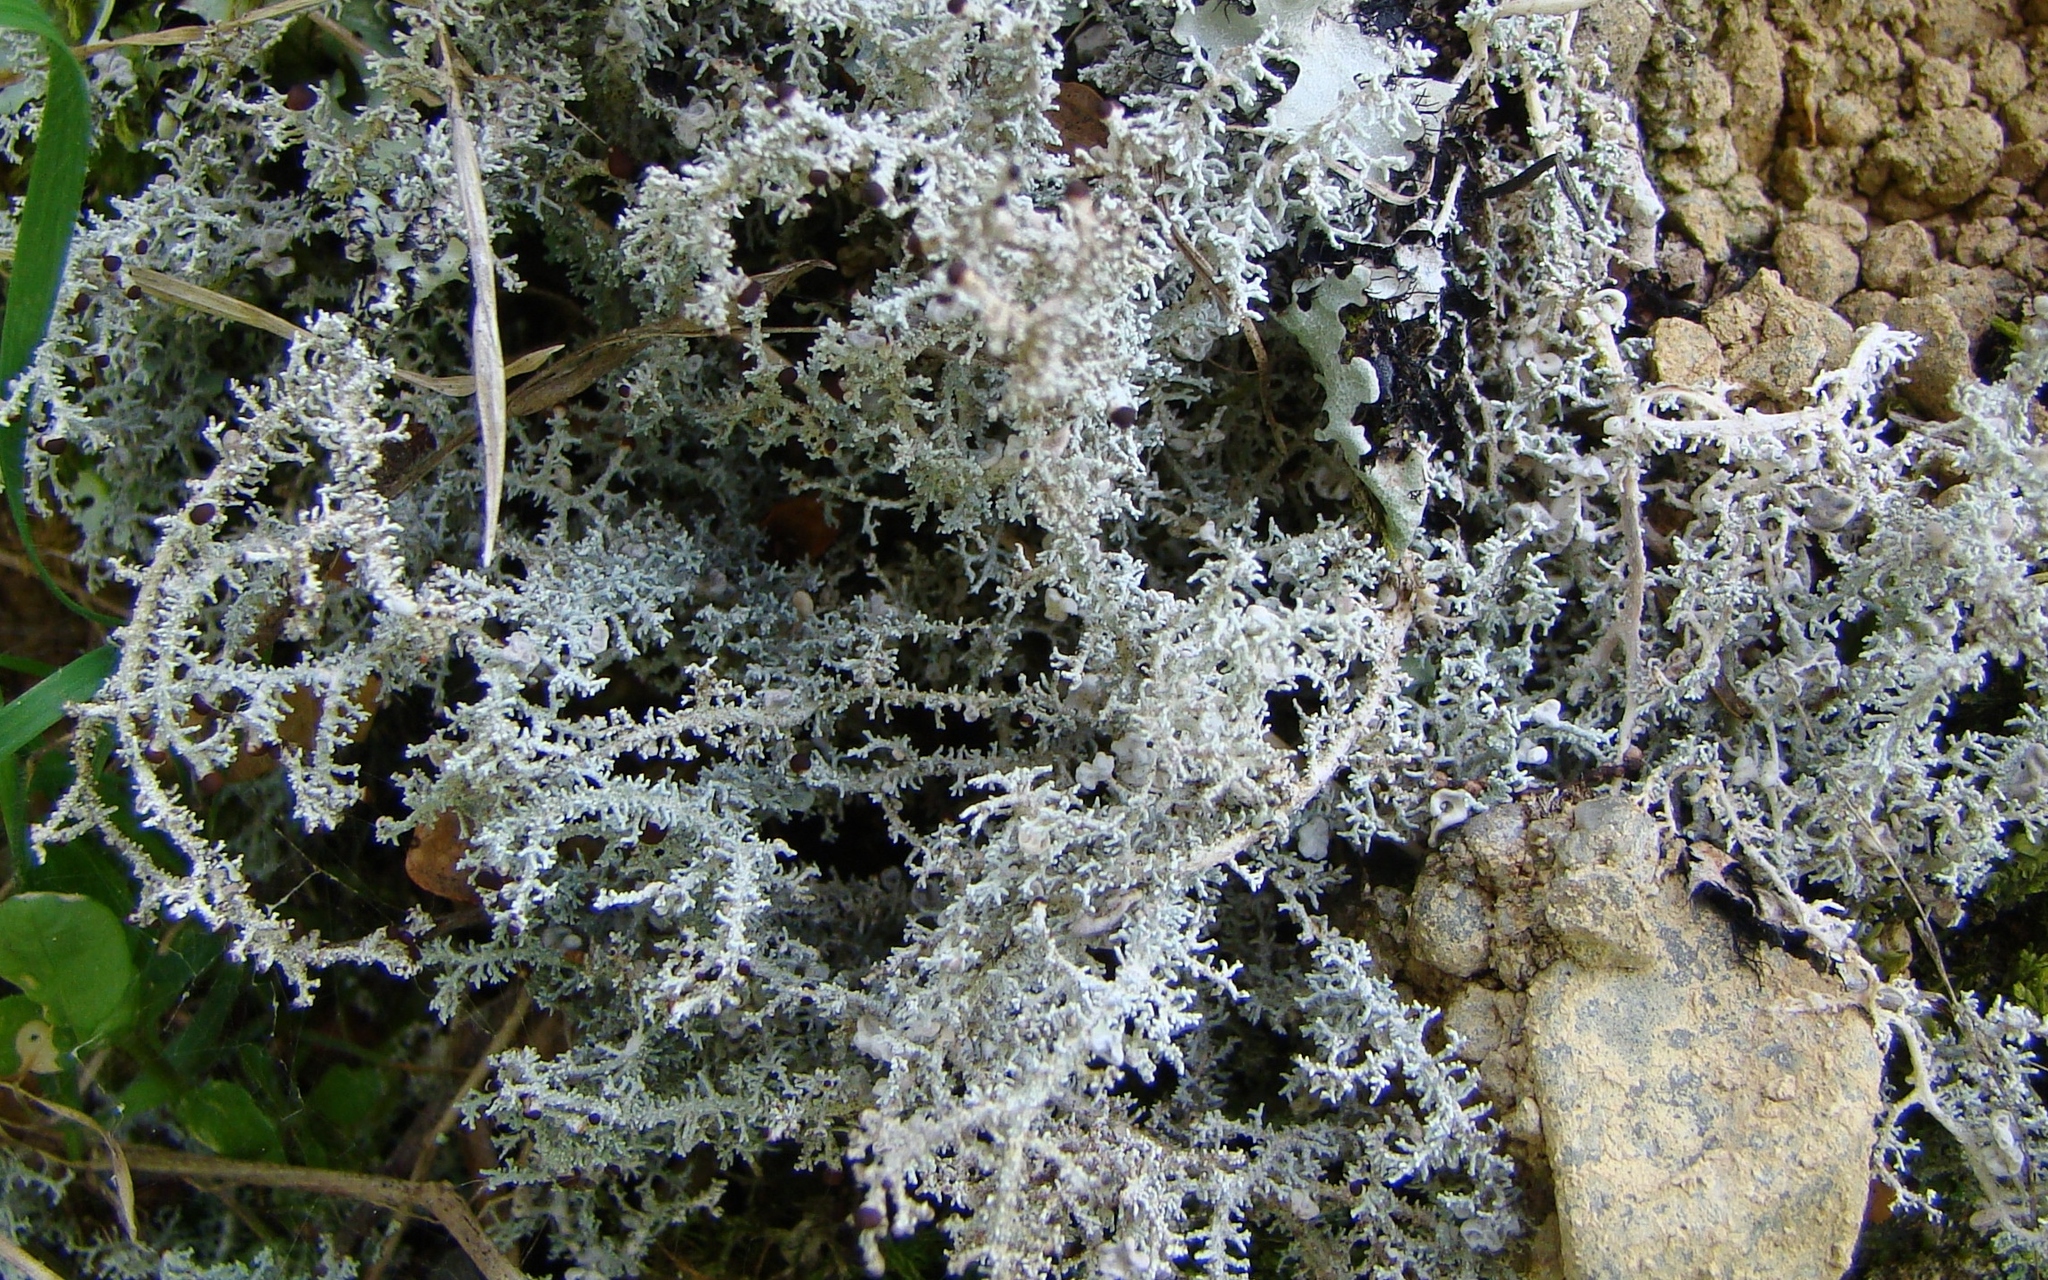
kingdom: Fungi
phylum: Ascomycota
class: Lecanoromycetes
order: Lecanorales
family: Stereocaulaceae
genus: Stereocaulon
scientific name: Stereocaulon ramulosum
